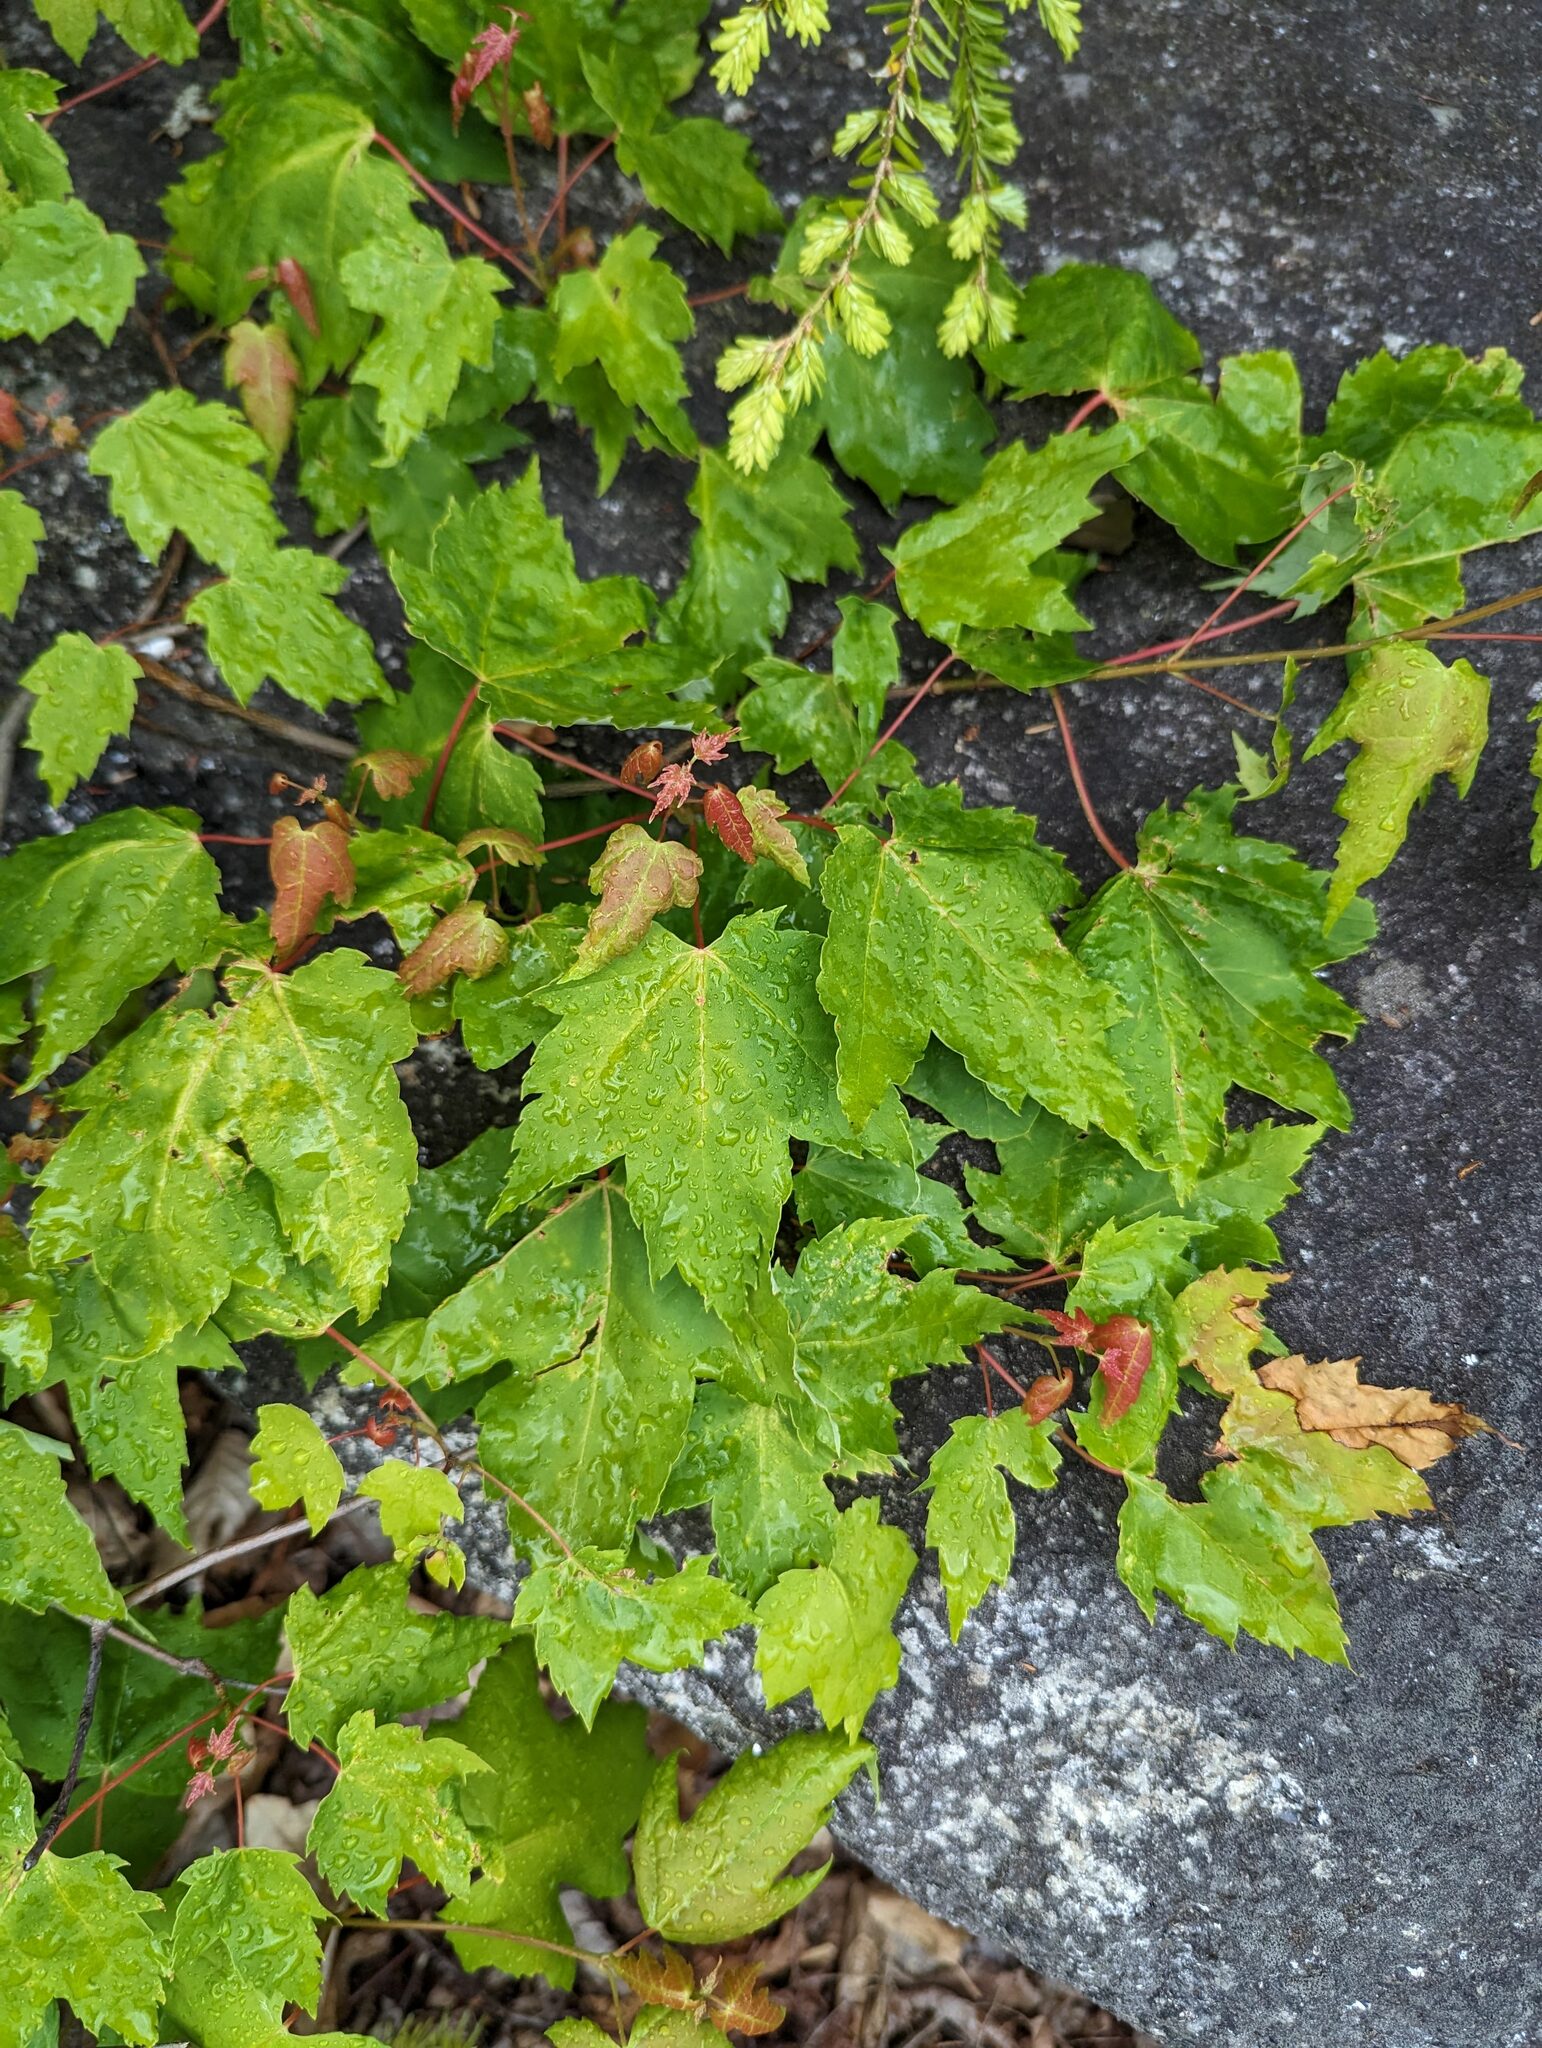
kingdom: Plantae
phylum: Tracheophyta
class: Magnoliopsida
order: Sapindales
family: Sapindaceae
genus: Acer
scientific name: Acer rubrum
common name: Red maple
